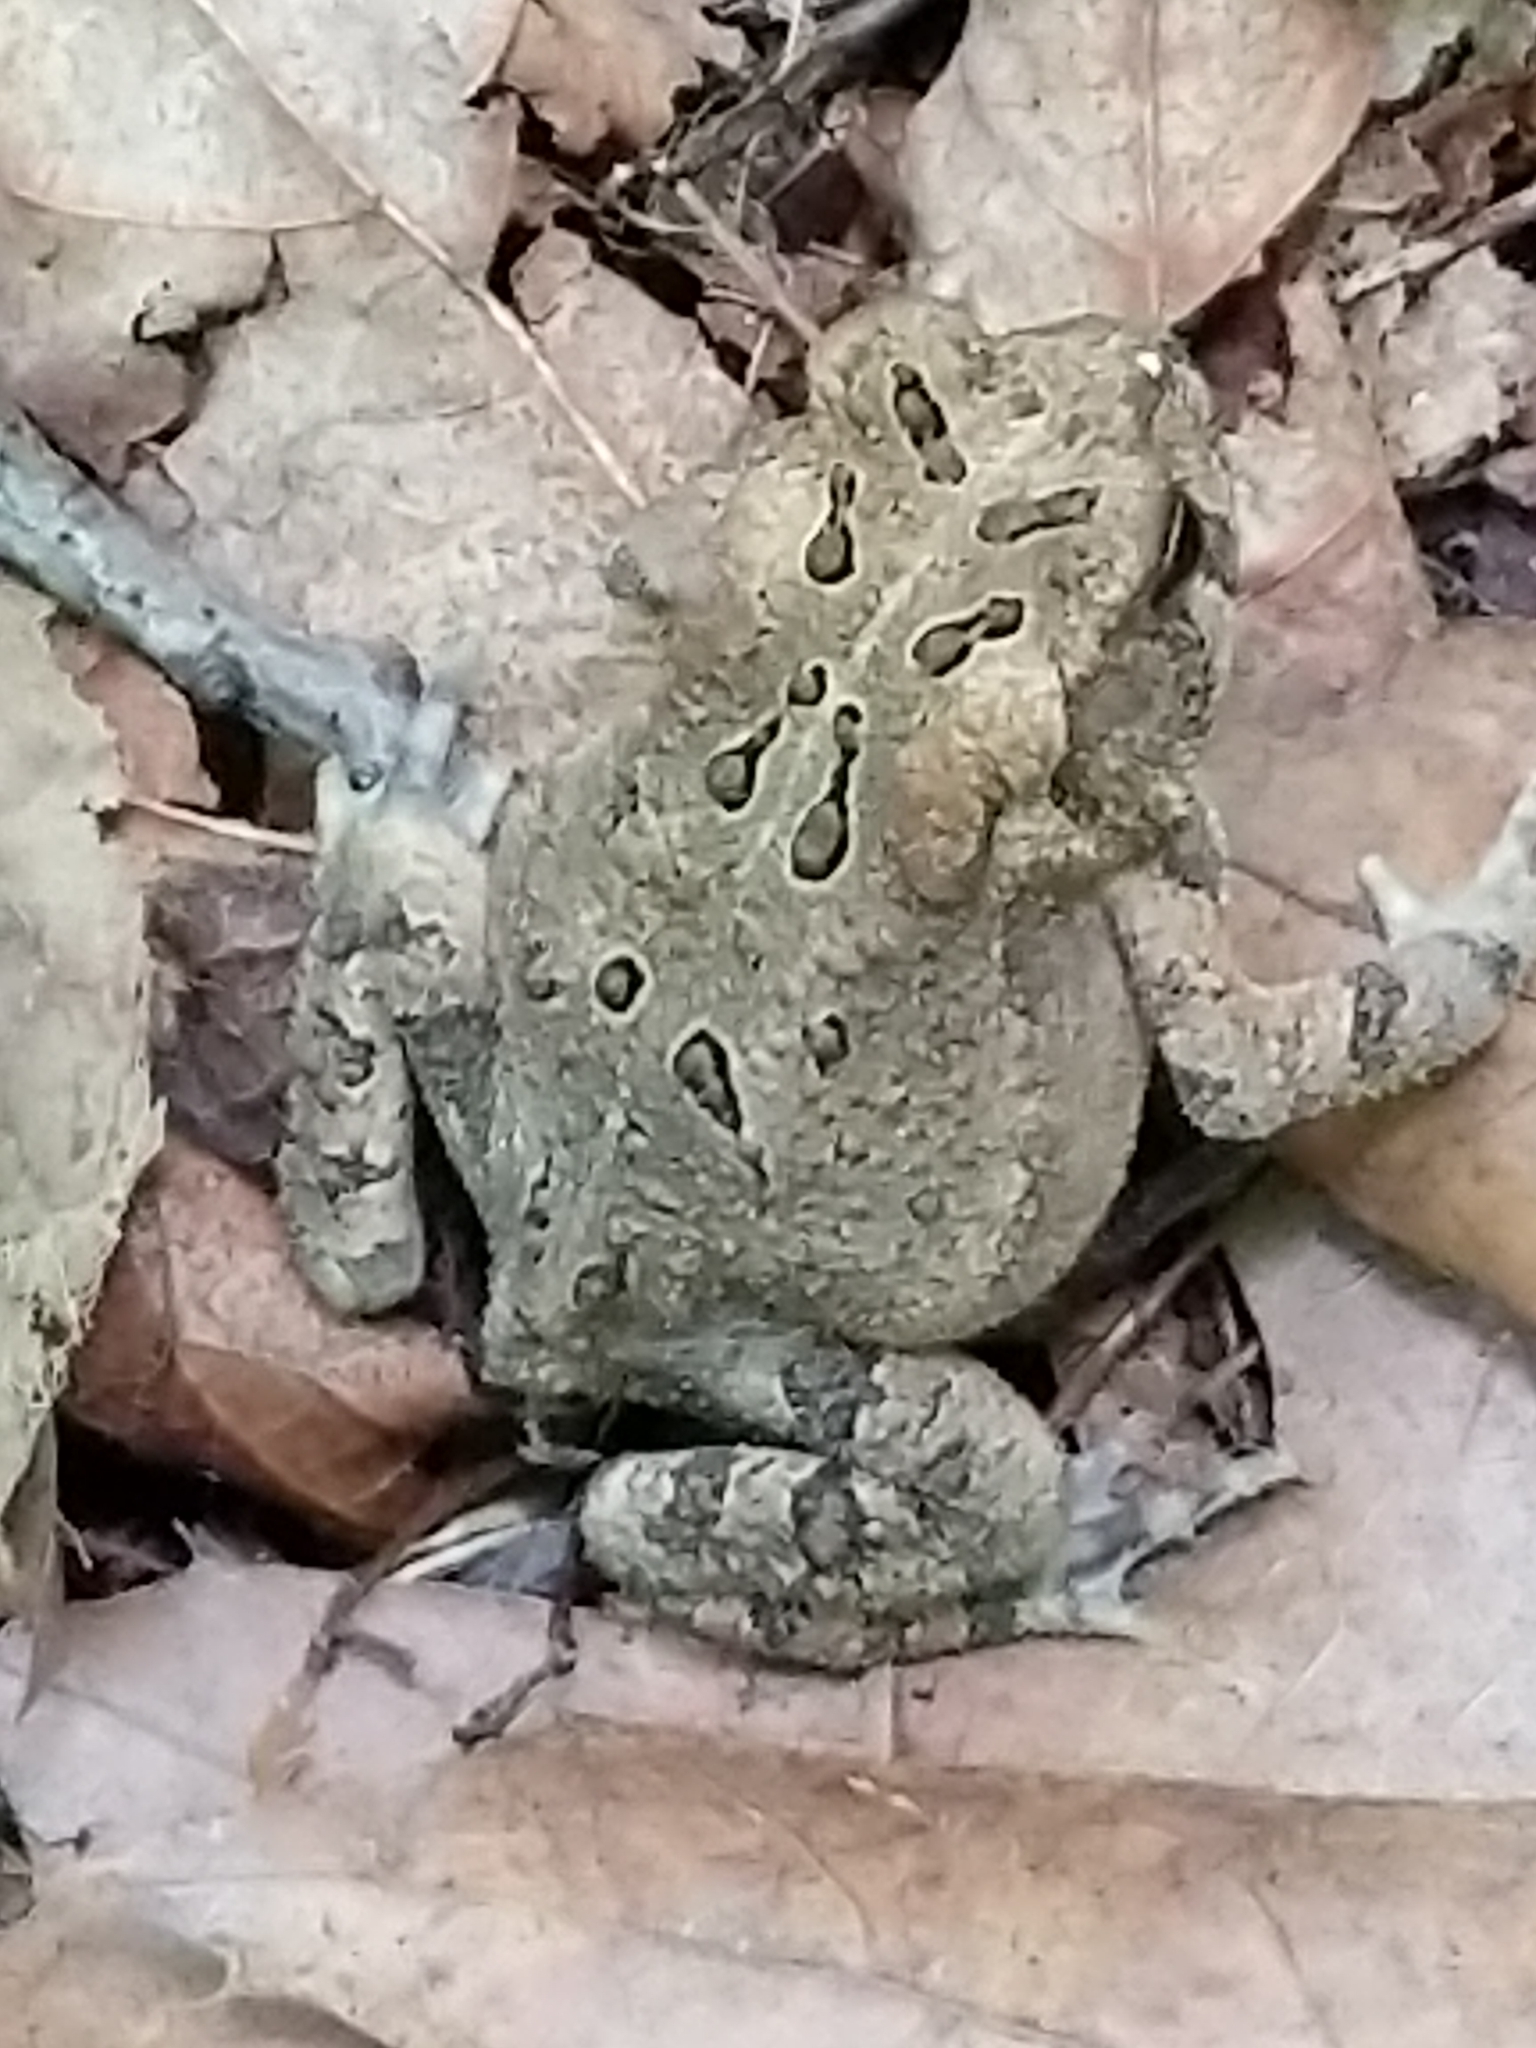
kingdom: Animalia
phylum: Chordata
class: Amphibia
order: Anura
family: Bufonidae
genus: Anaxyrus
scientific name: Anaxyrus americanus
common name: American toad
